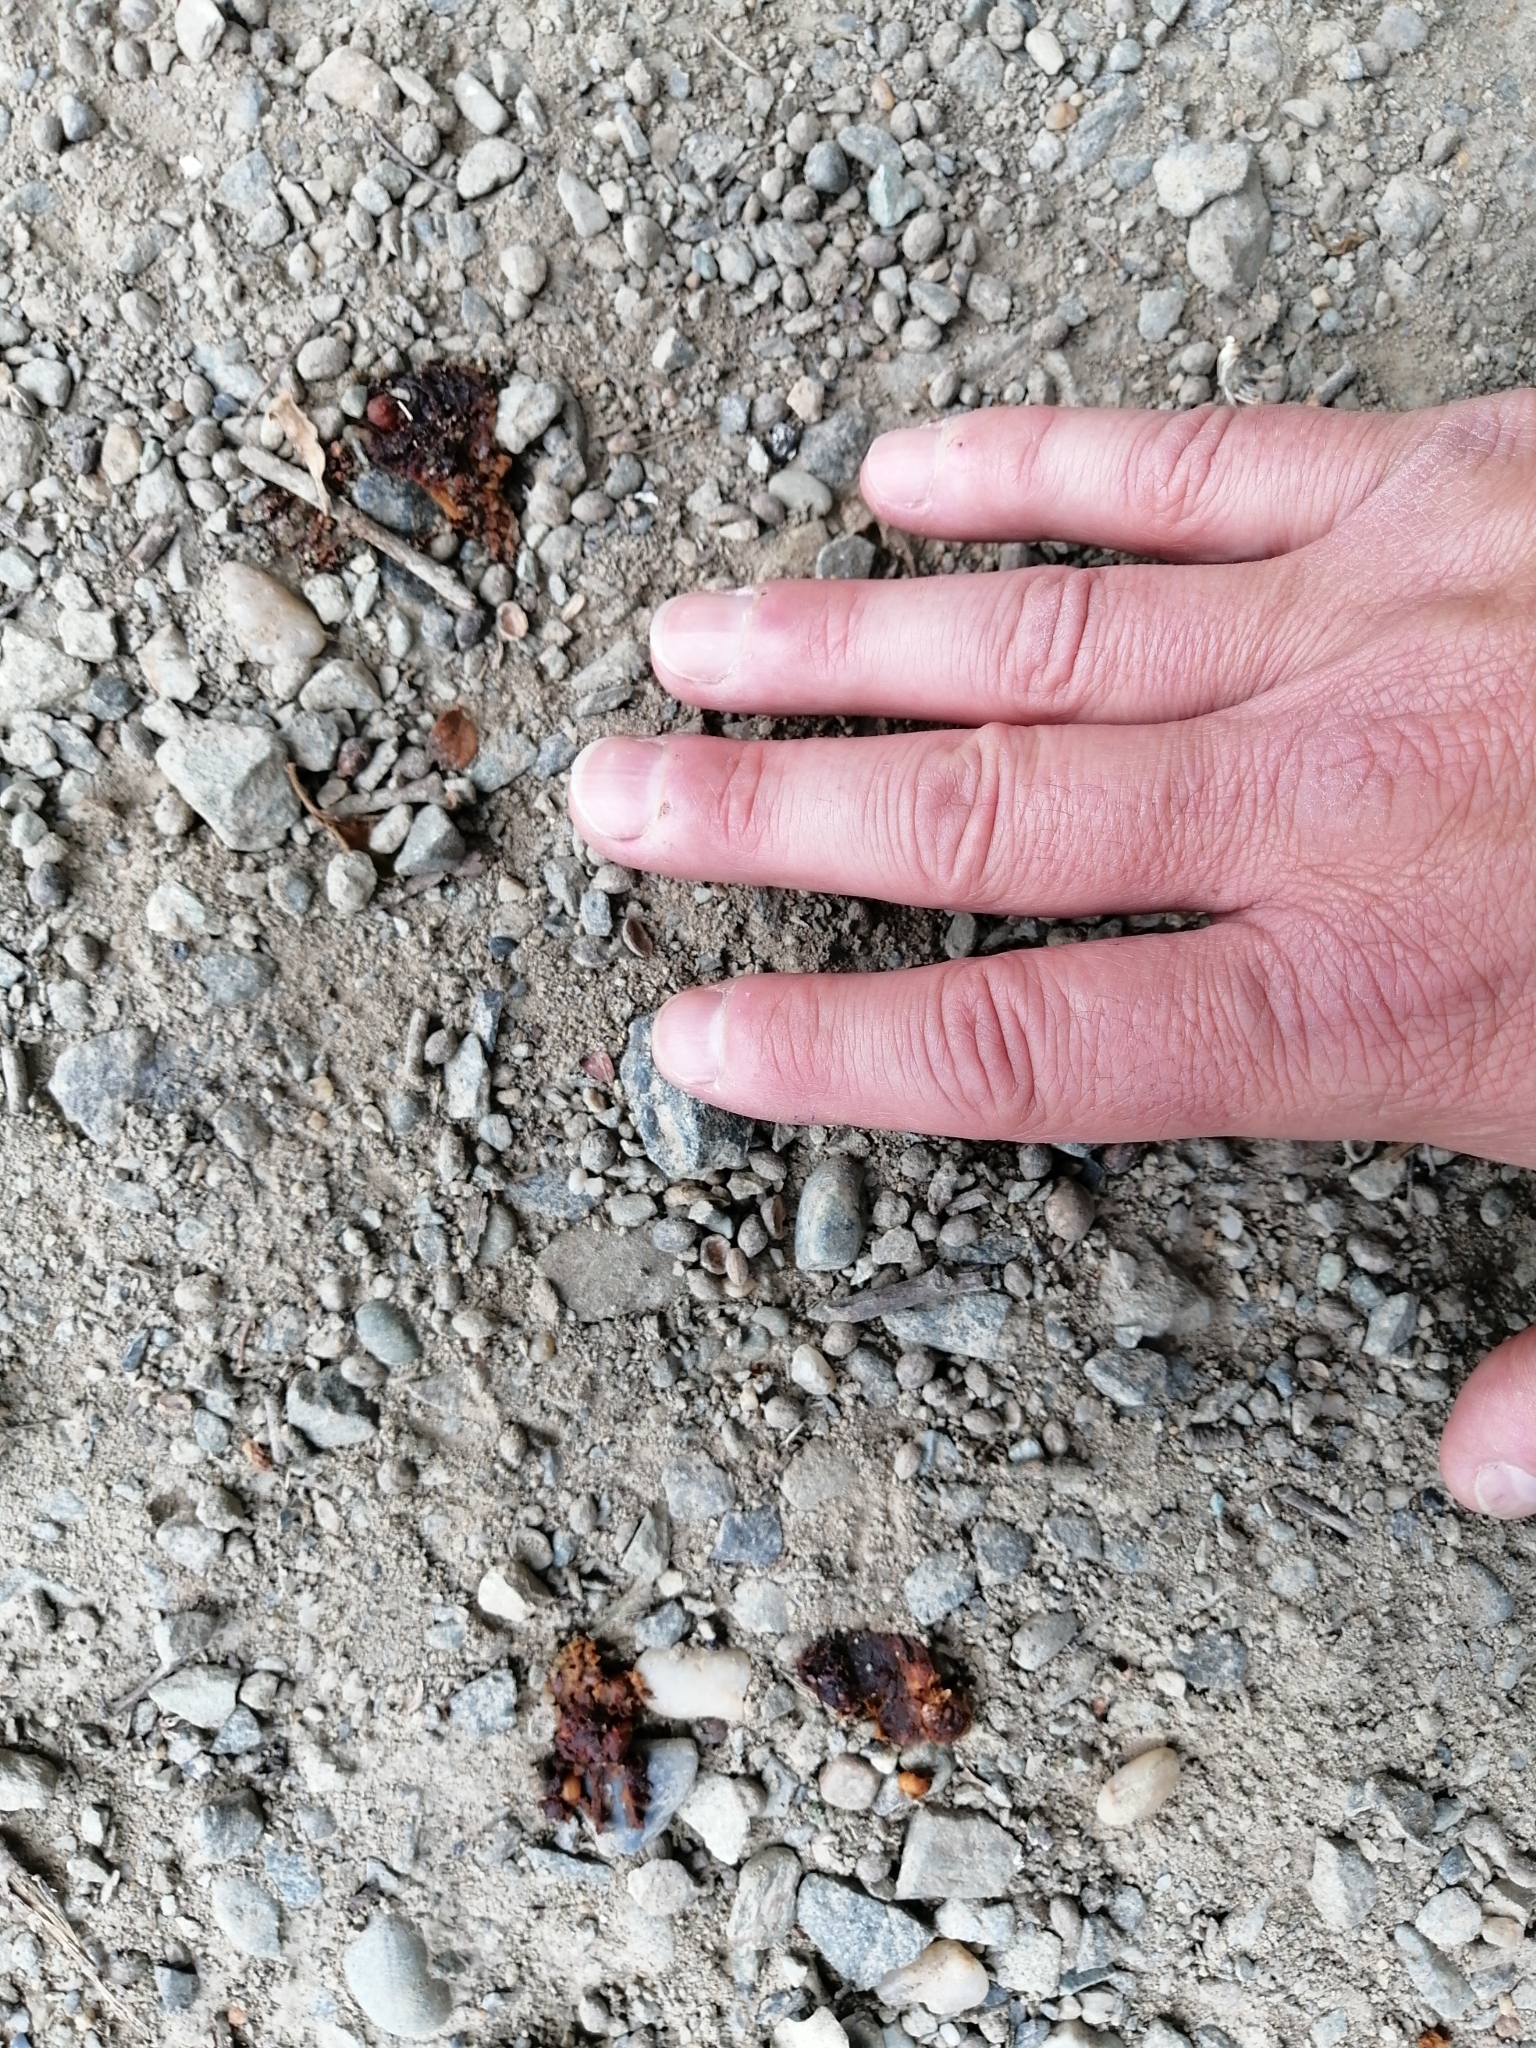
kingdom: Animalia
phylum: Chordata
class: Aves
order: Passeriformes
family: Turdidae
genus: Turdus
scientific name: Turdus merula
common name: Common blackbird
